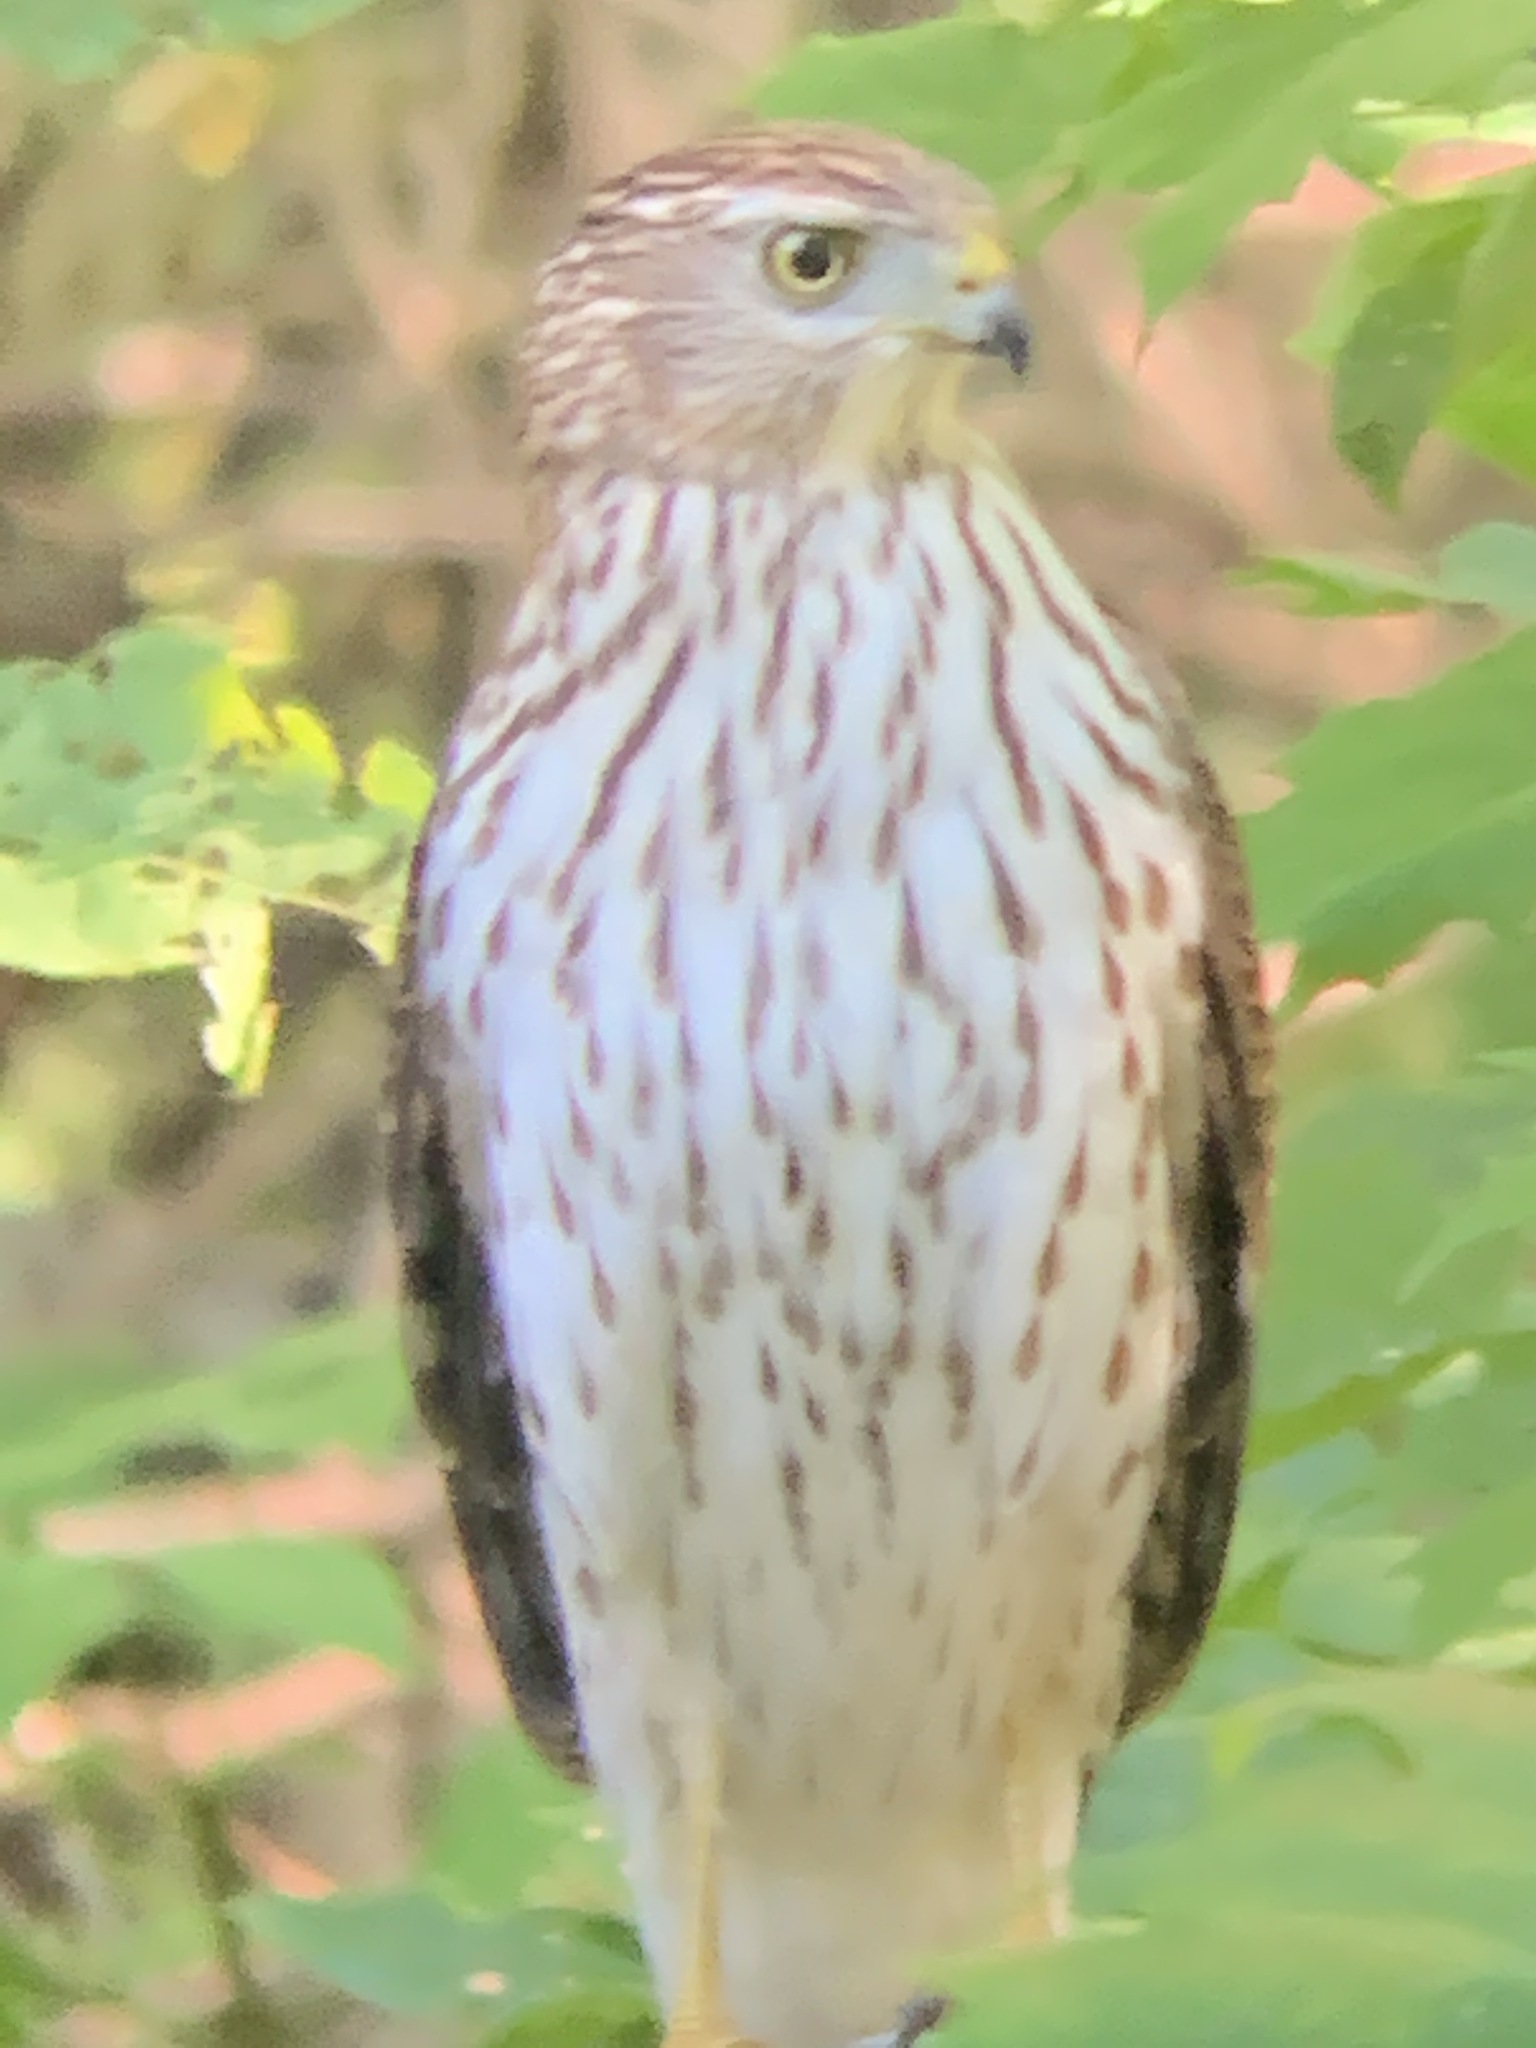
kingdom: Animalia
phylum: Chordata
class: Aves
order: Accipitriformes
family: Accipitridae
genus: Accipiter
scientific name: Accipiter cooperii
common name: Cooper's hawk
